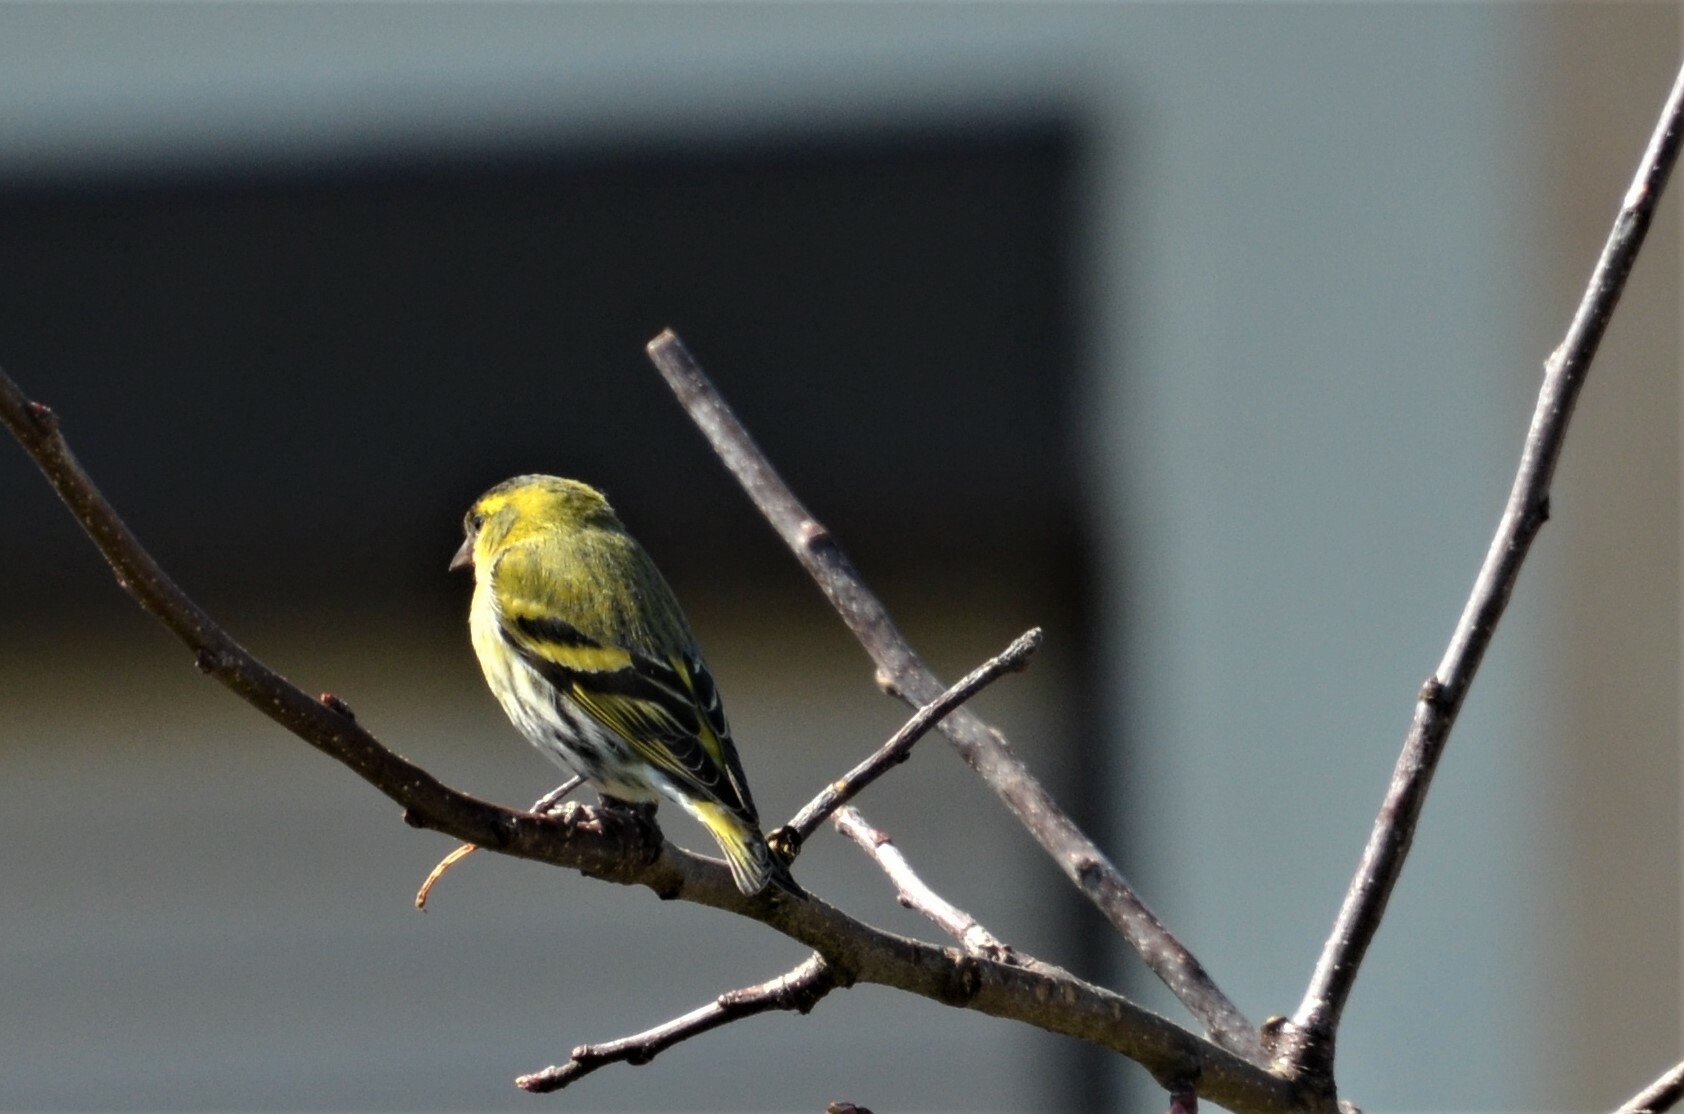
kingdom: Animalia
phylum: Chordata
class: Aves
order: Passeriformes
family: Fringillidae
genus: Spinus
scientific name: Spinus spinus
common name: Eurasian siskin
